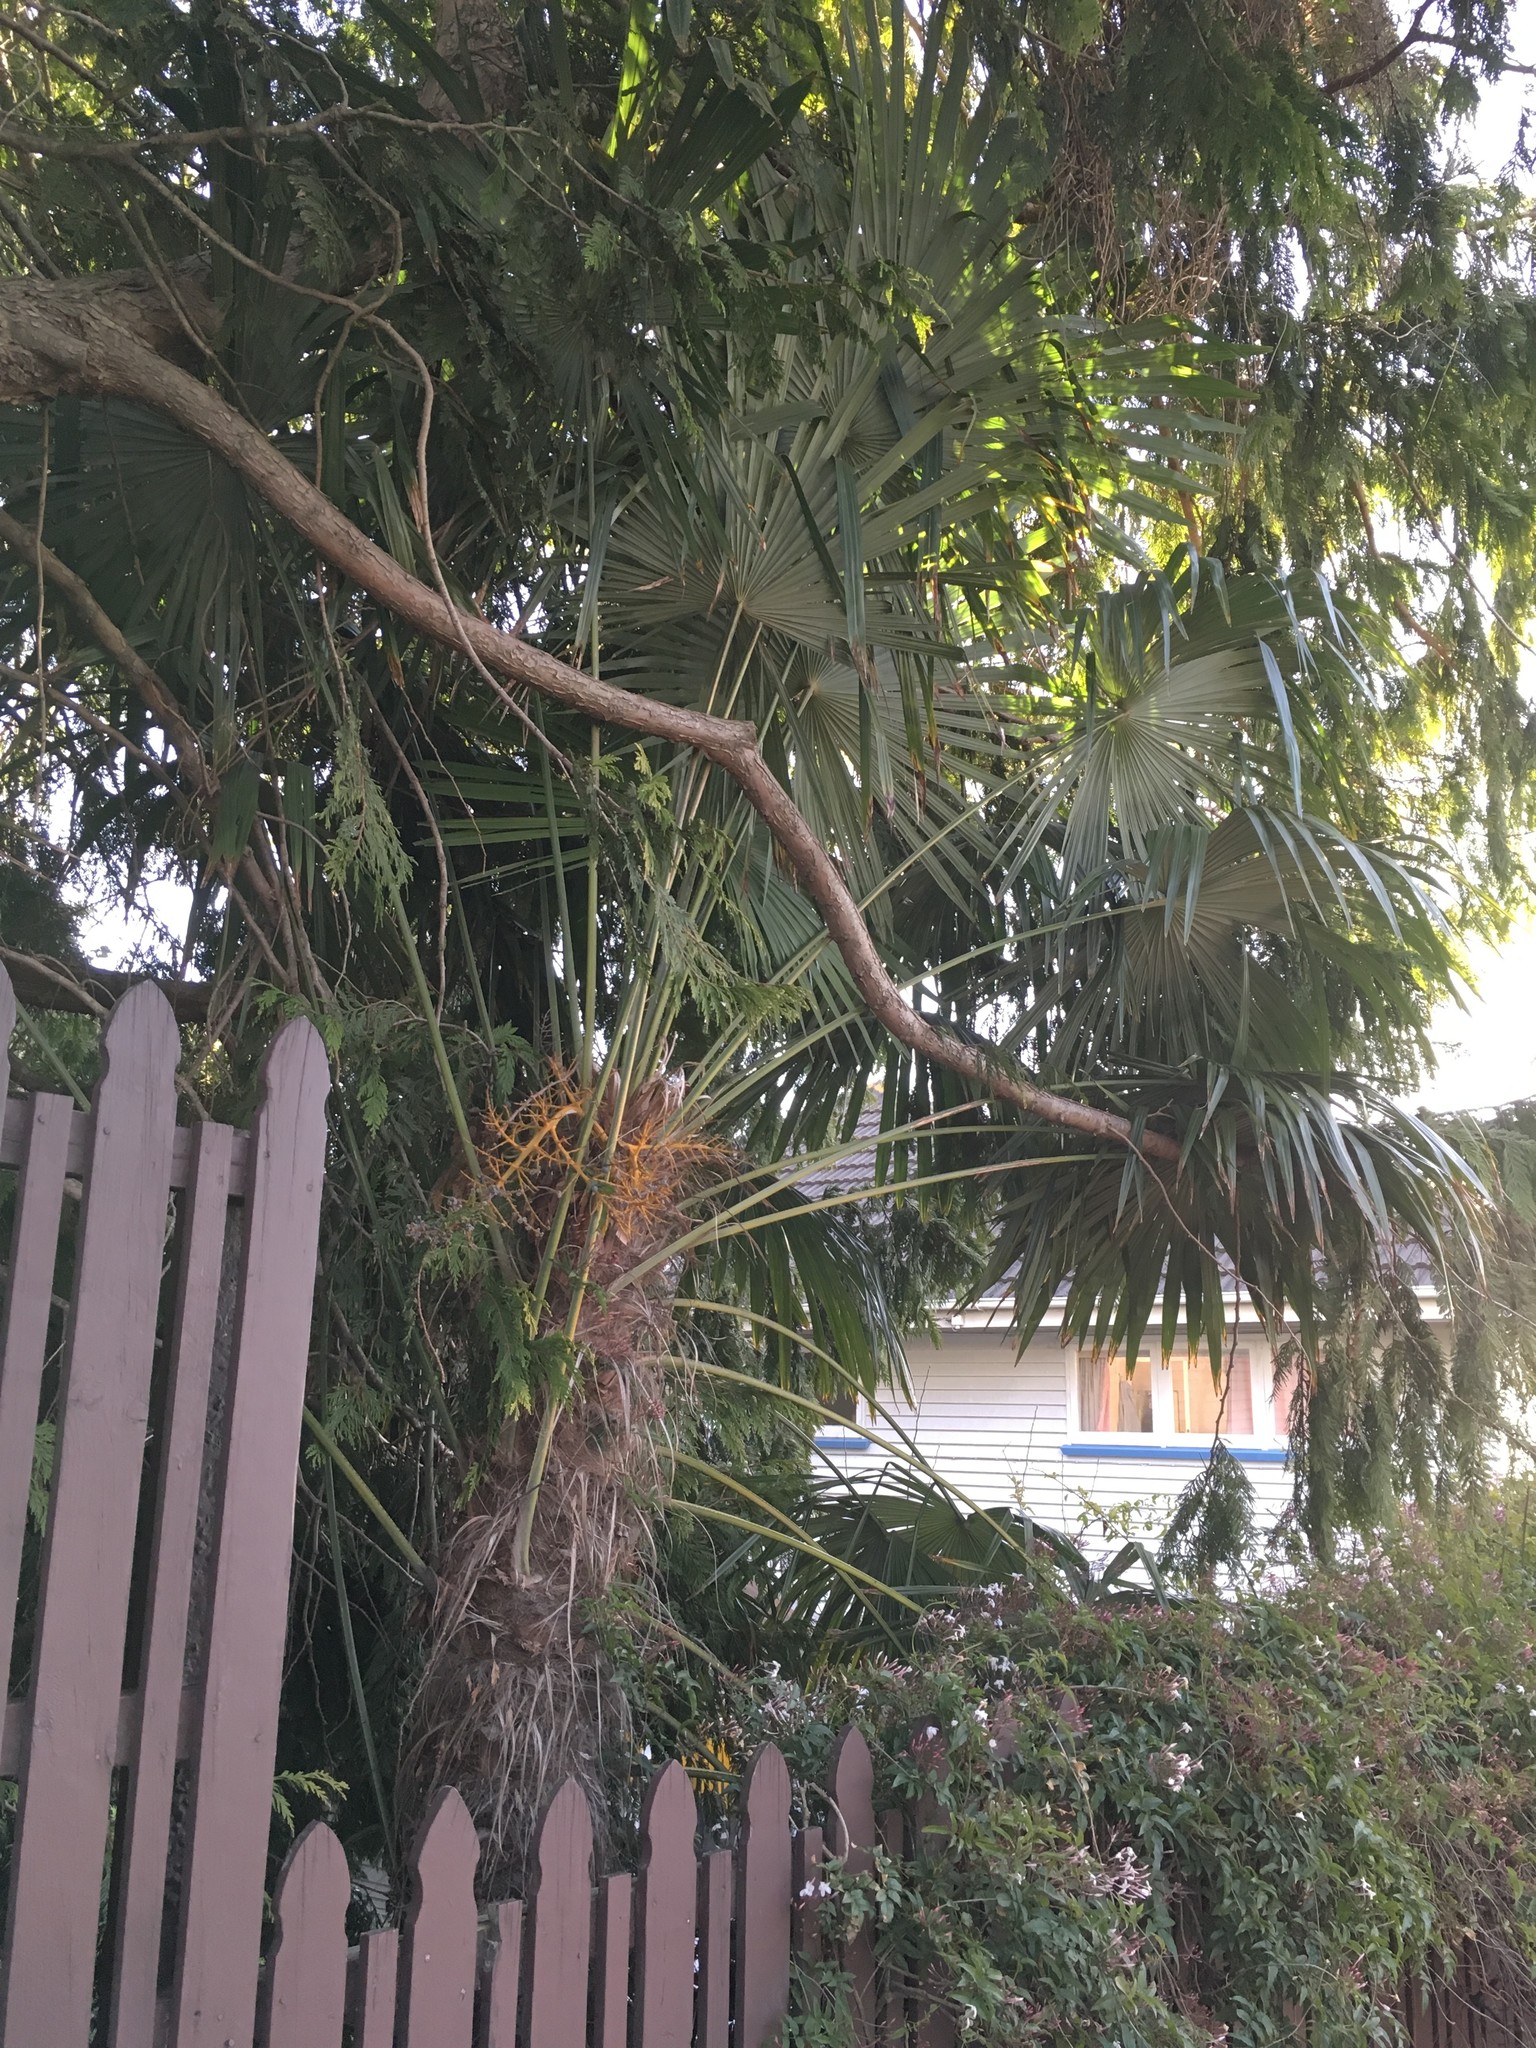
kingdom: Plantae
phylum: Tracheophyta
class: Liliopsida
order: Arecales
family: Arecaceae
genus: Trachycarpus
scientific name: Trachycarpus fortunei
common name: Chusan palm
